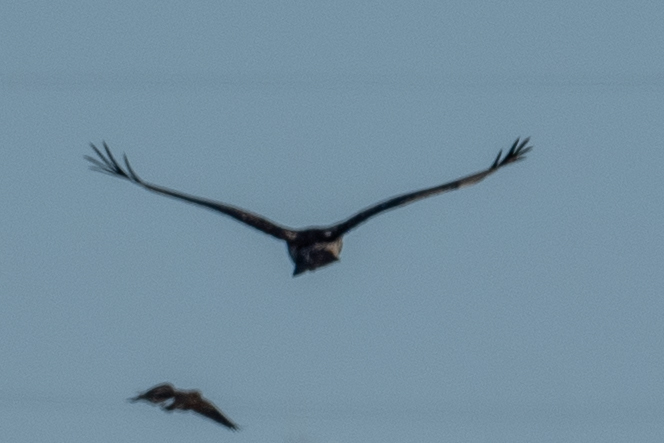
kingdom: Animalia
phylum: Chordata
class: Aves
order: Accipitriformes
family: Accipitridae
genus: Buteo
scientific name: Buteo jamaicensis
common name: Red-tailed hawk
